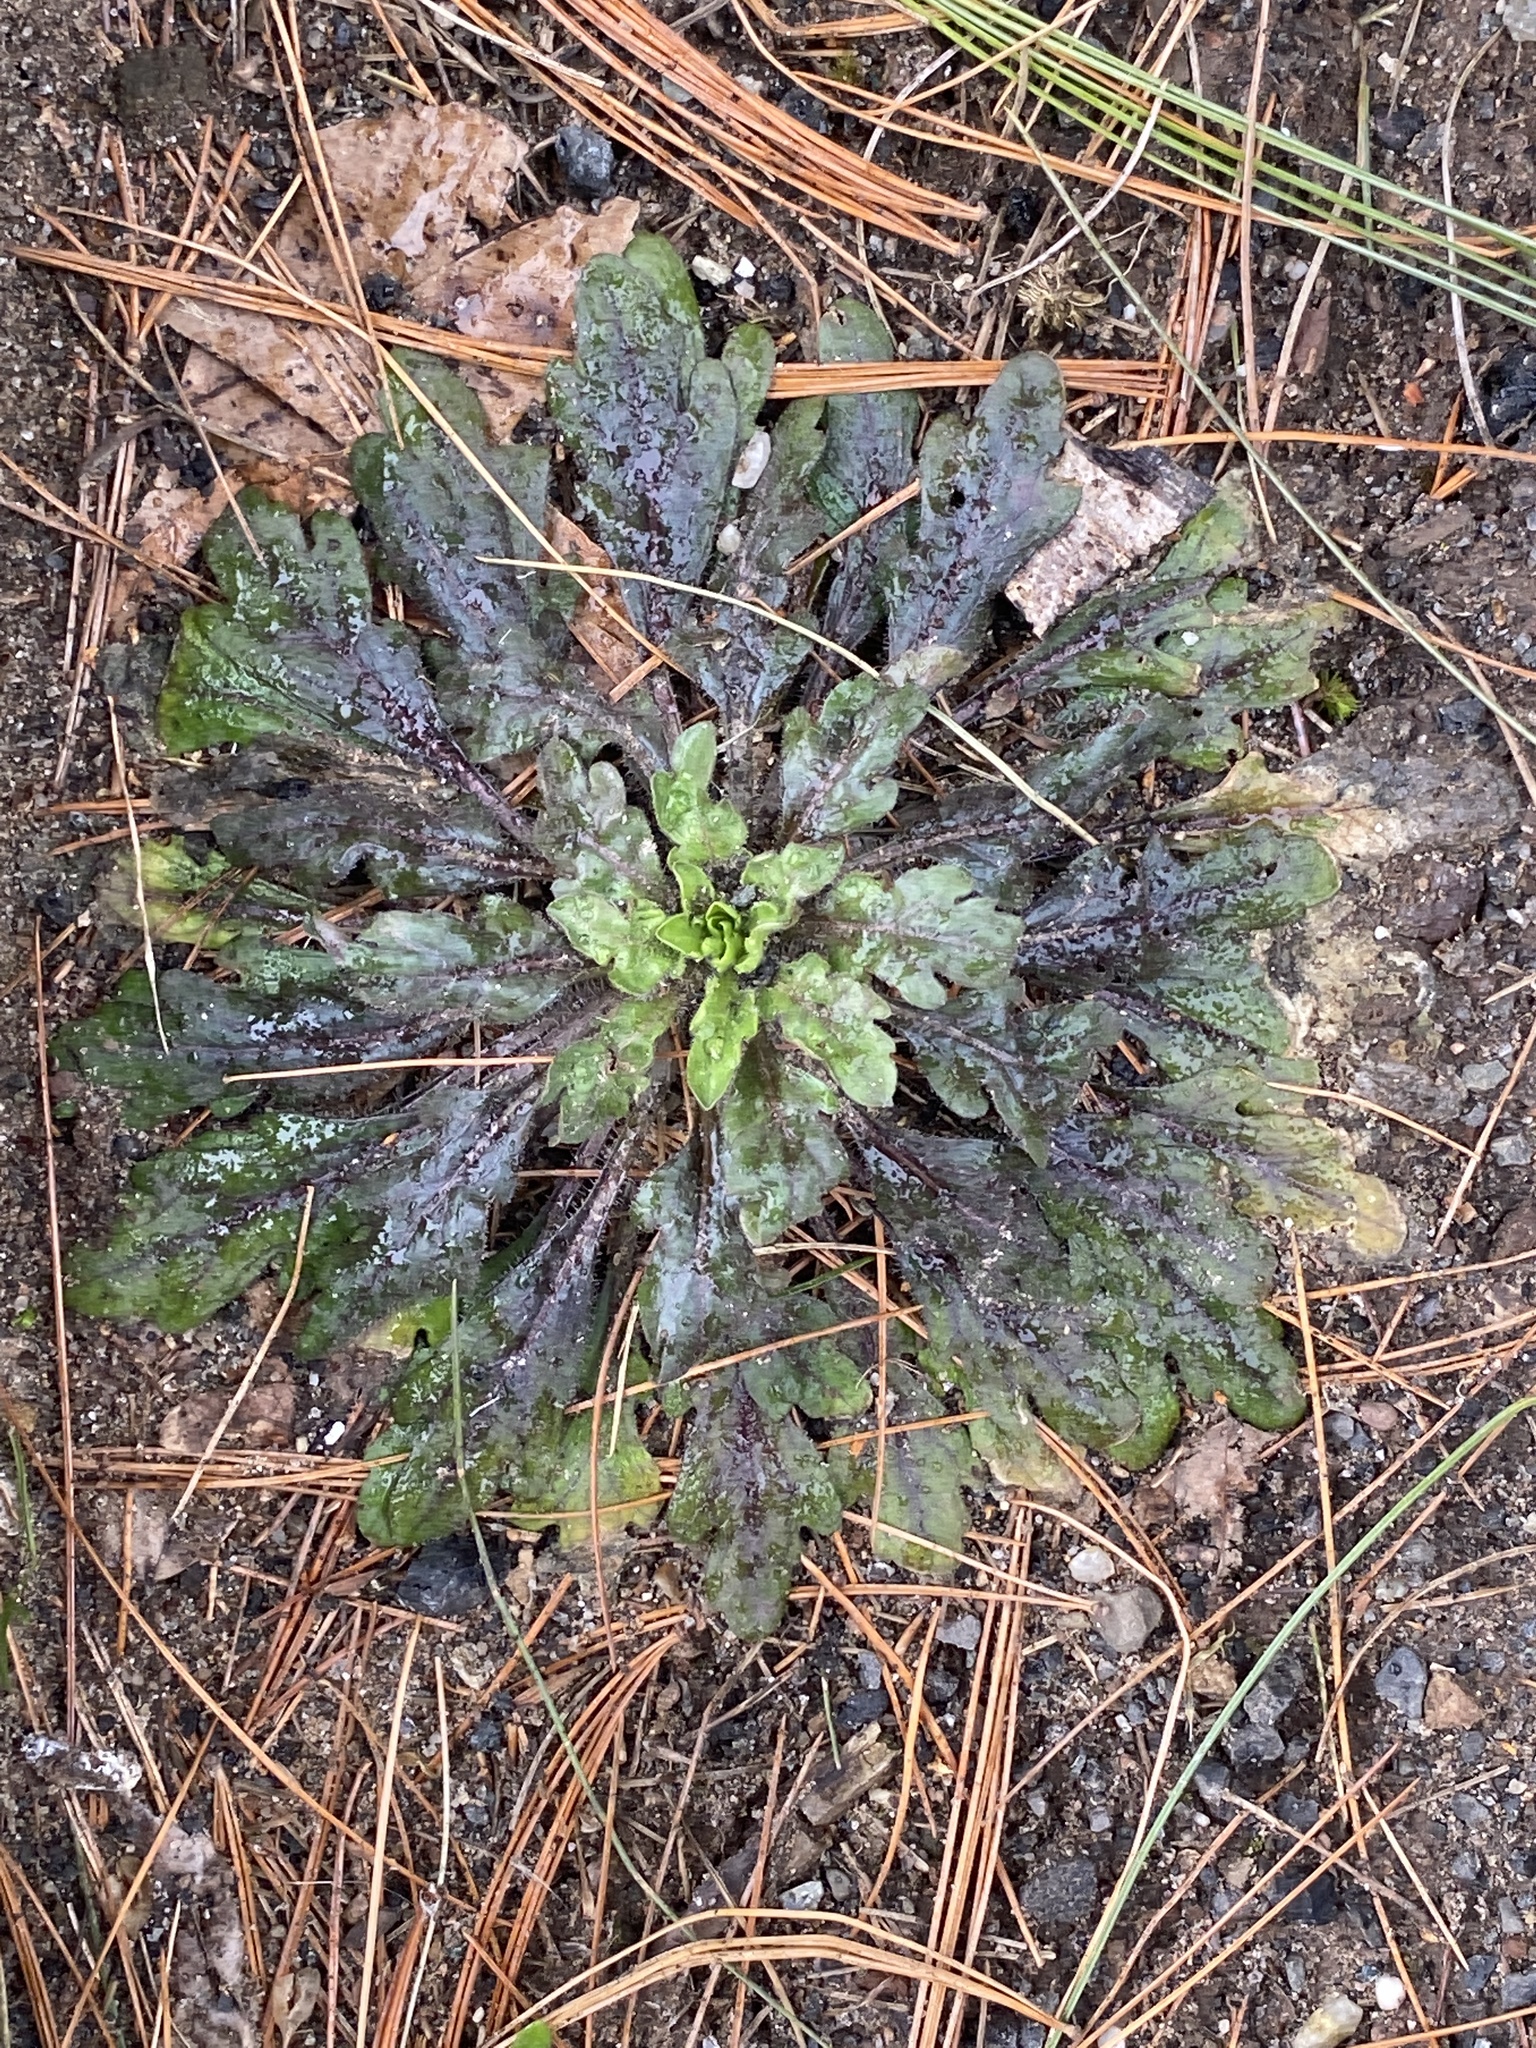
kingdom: Plantae
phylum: Tracheophyta
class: Magnoliopsida
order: Asterales
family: Asteraceae
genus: Erigeron
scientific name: Erigeron canadensis
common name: Canadian fleabane
